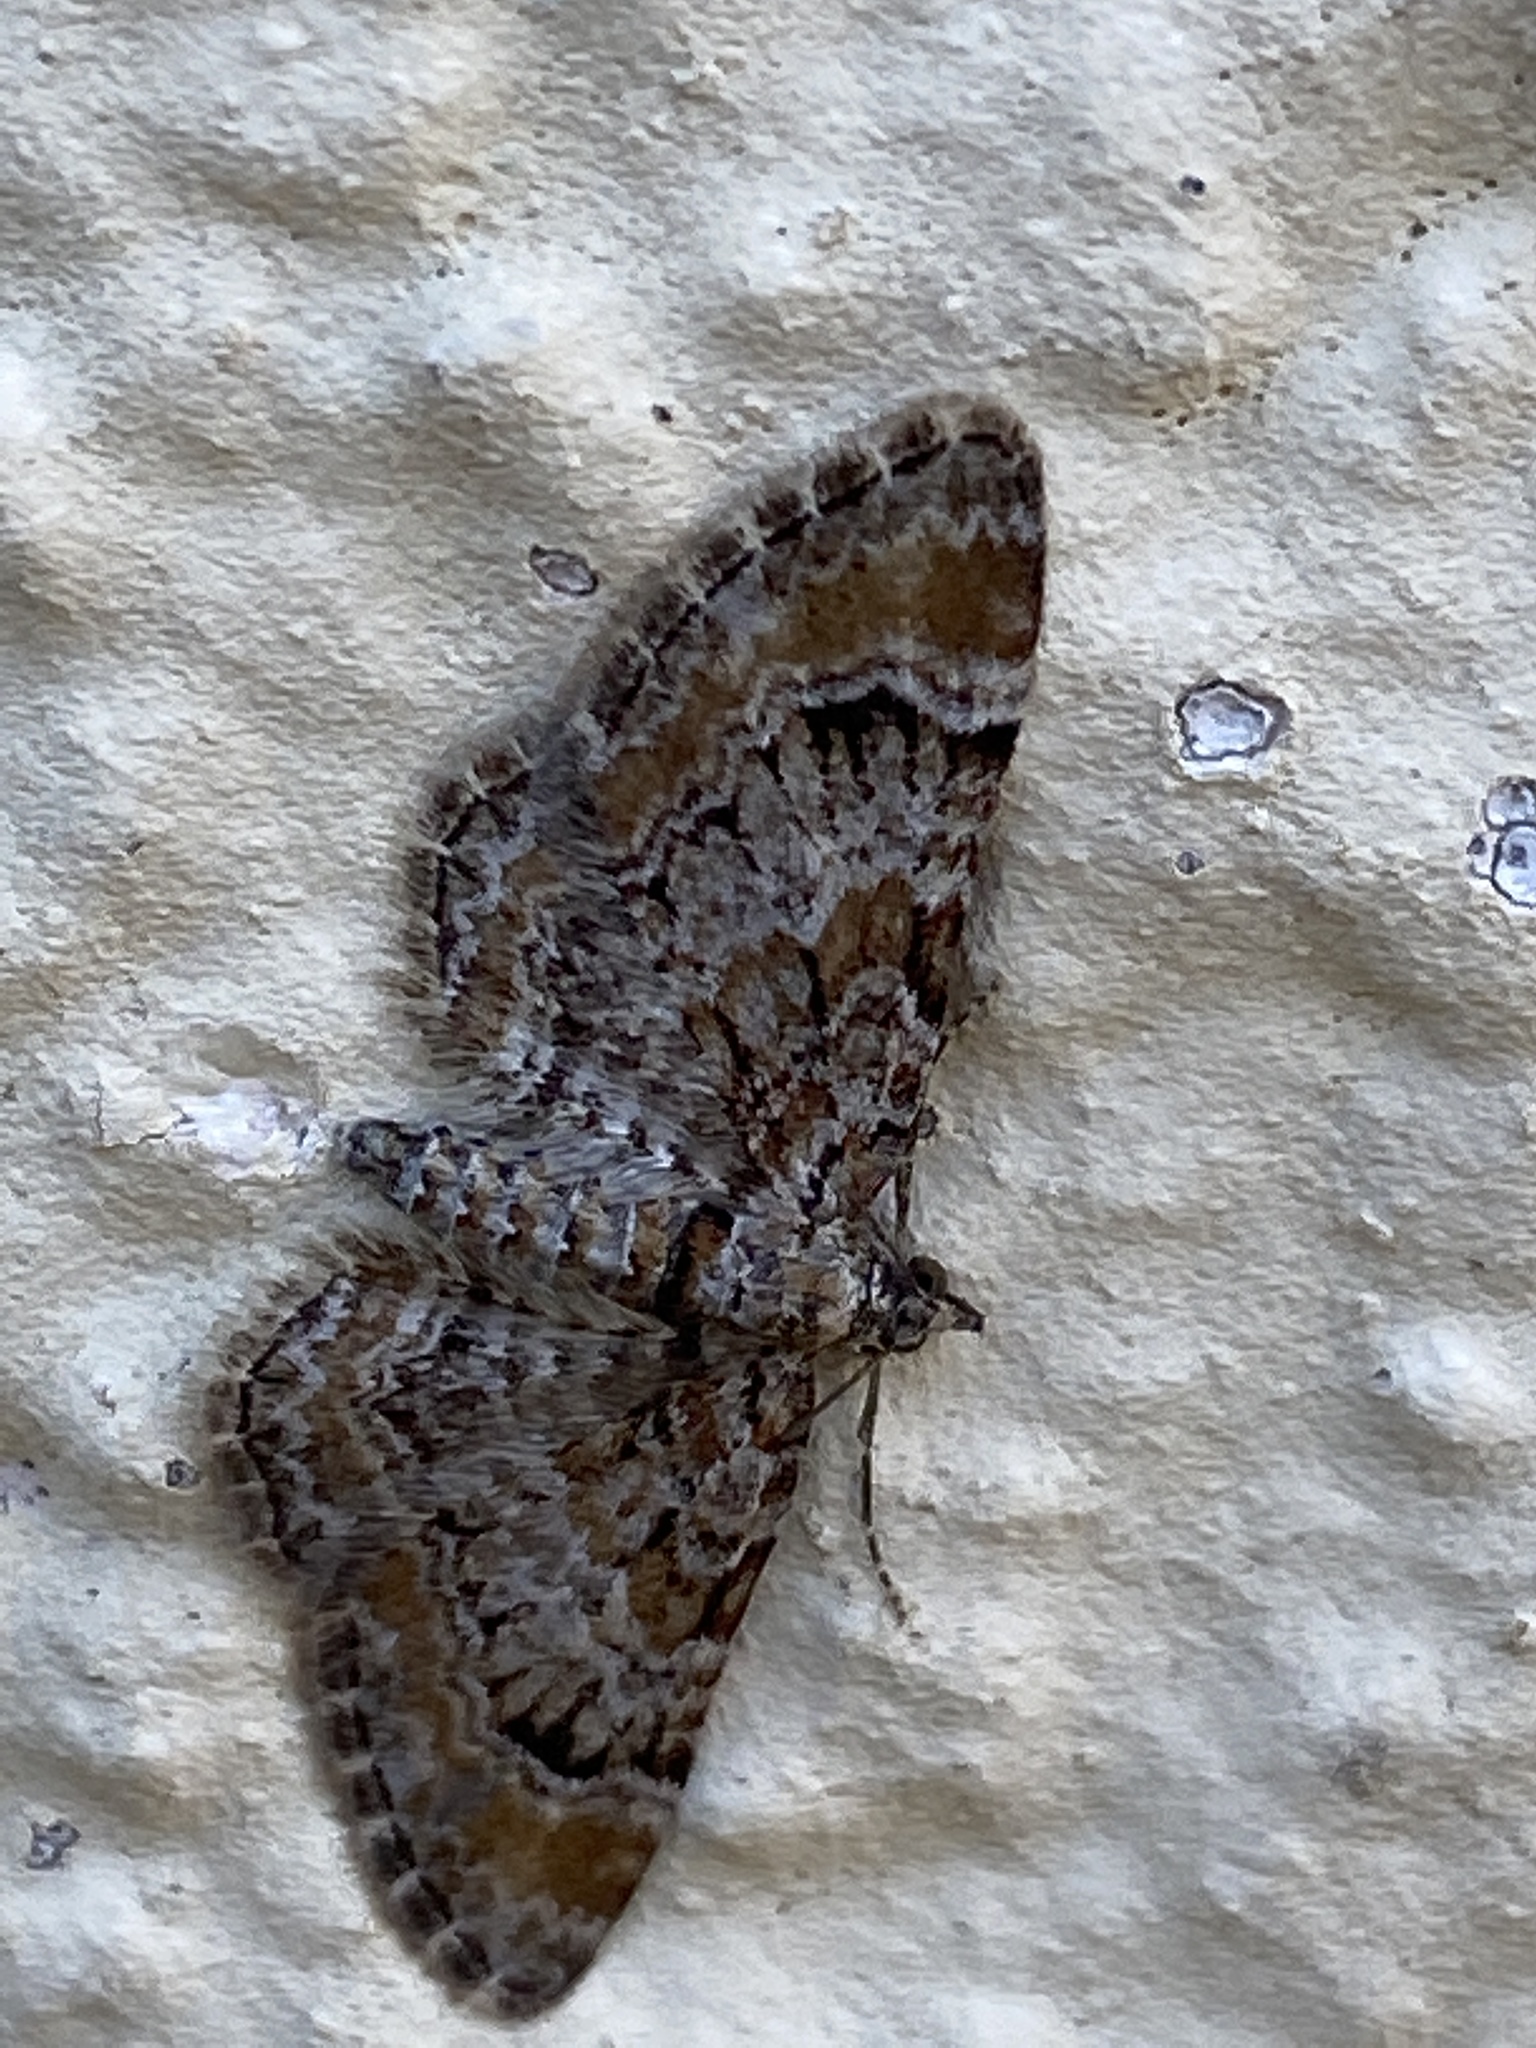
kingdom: Animalia
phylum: Arthropoda
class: Insecta
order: Lepidoptera
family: Geometridae
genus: Gymnoscelis
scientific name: Gymnoscelis rufifasciata
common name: Double-striped pug
